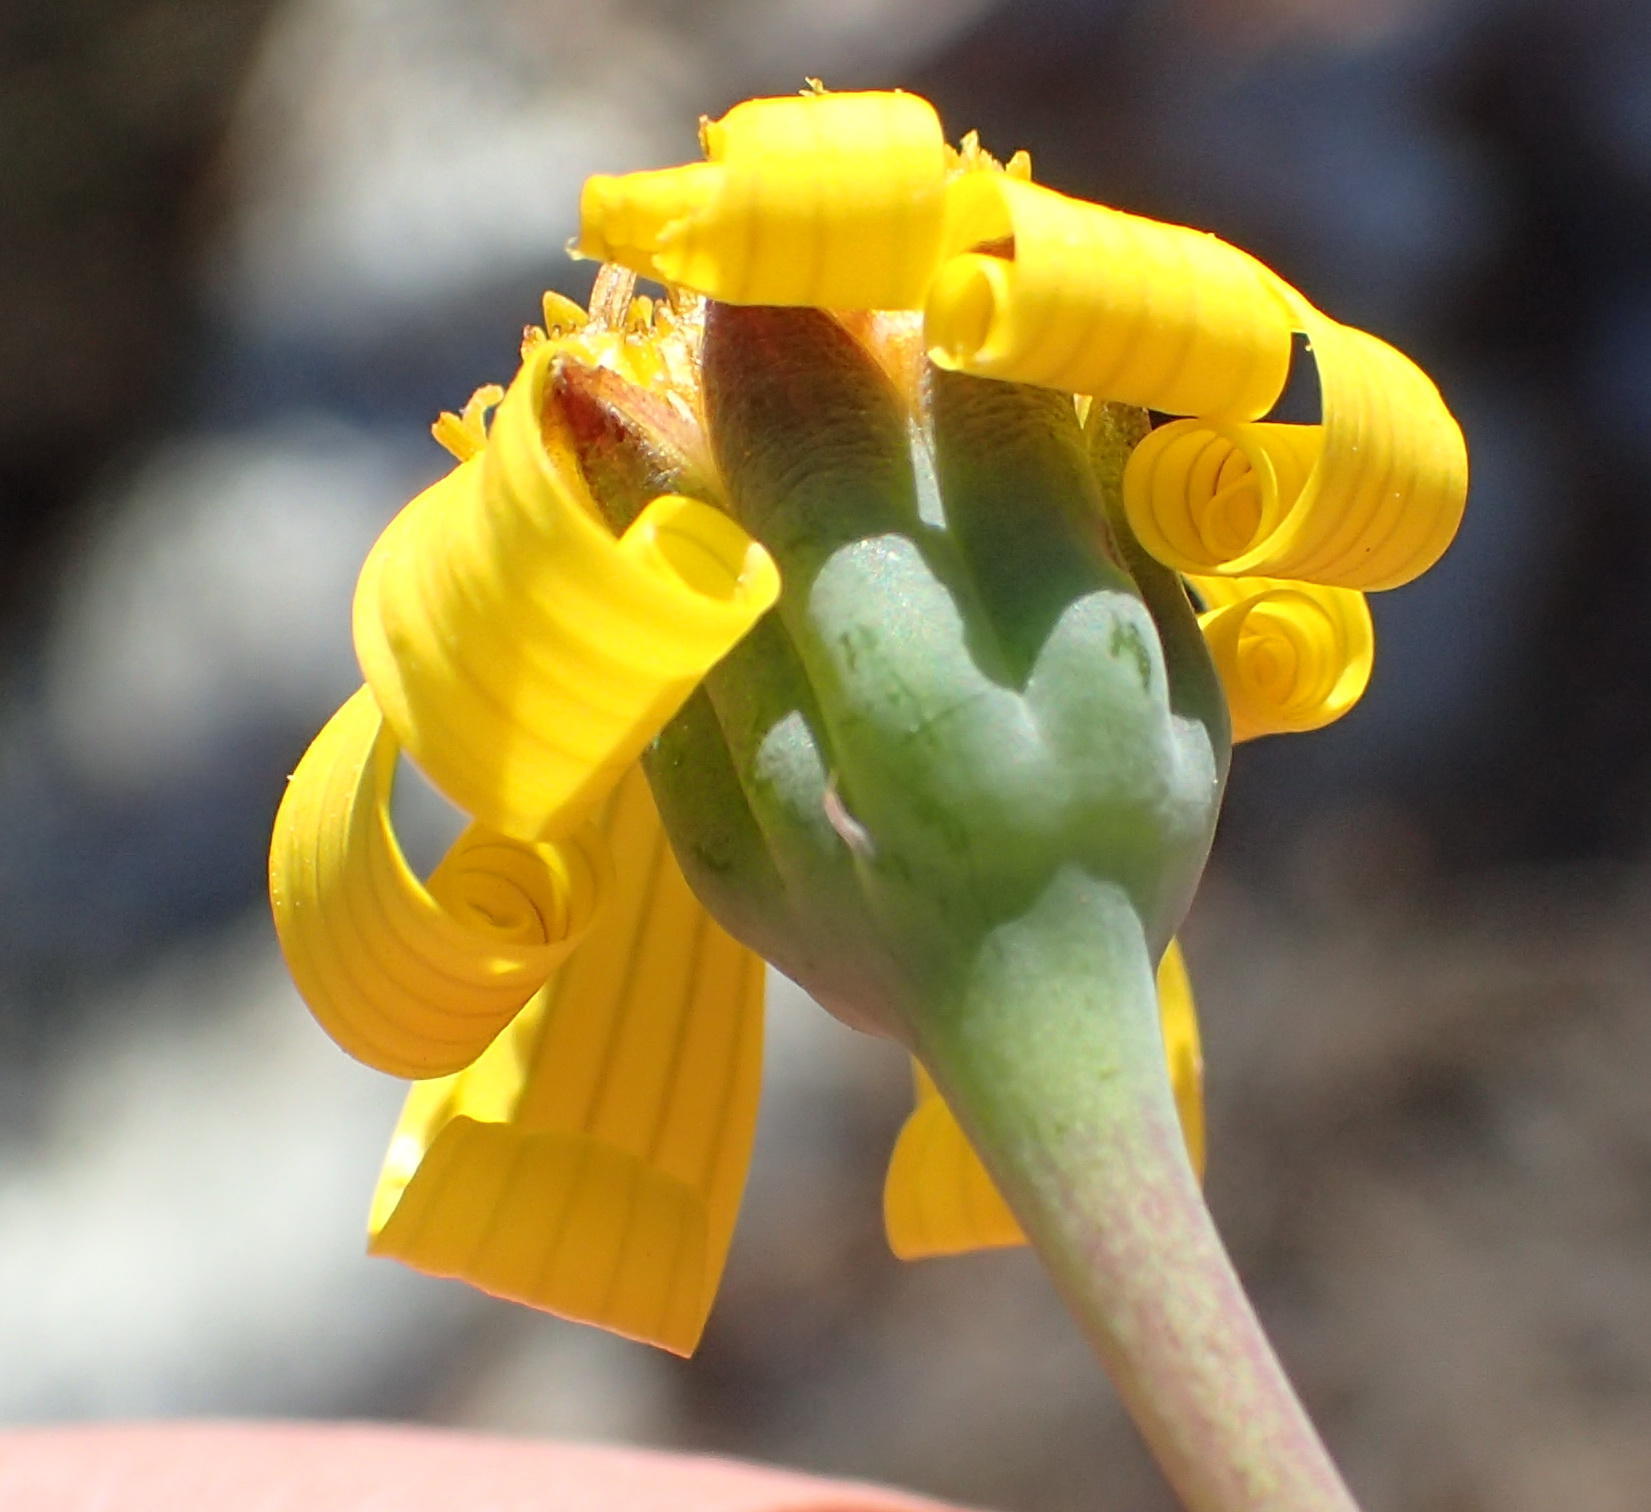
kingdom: Plantae
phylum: Tracheophyta
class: Magnoliopsida
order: Asterales
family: Asteraceae
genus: Othonna
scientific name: Othonna auriculifolia
